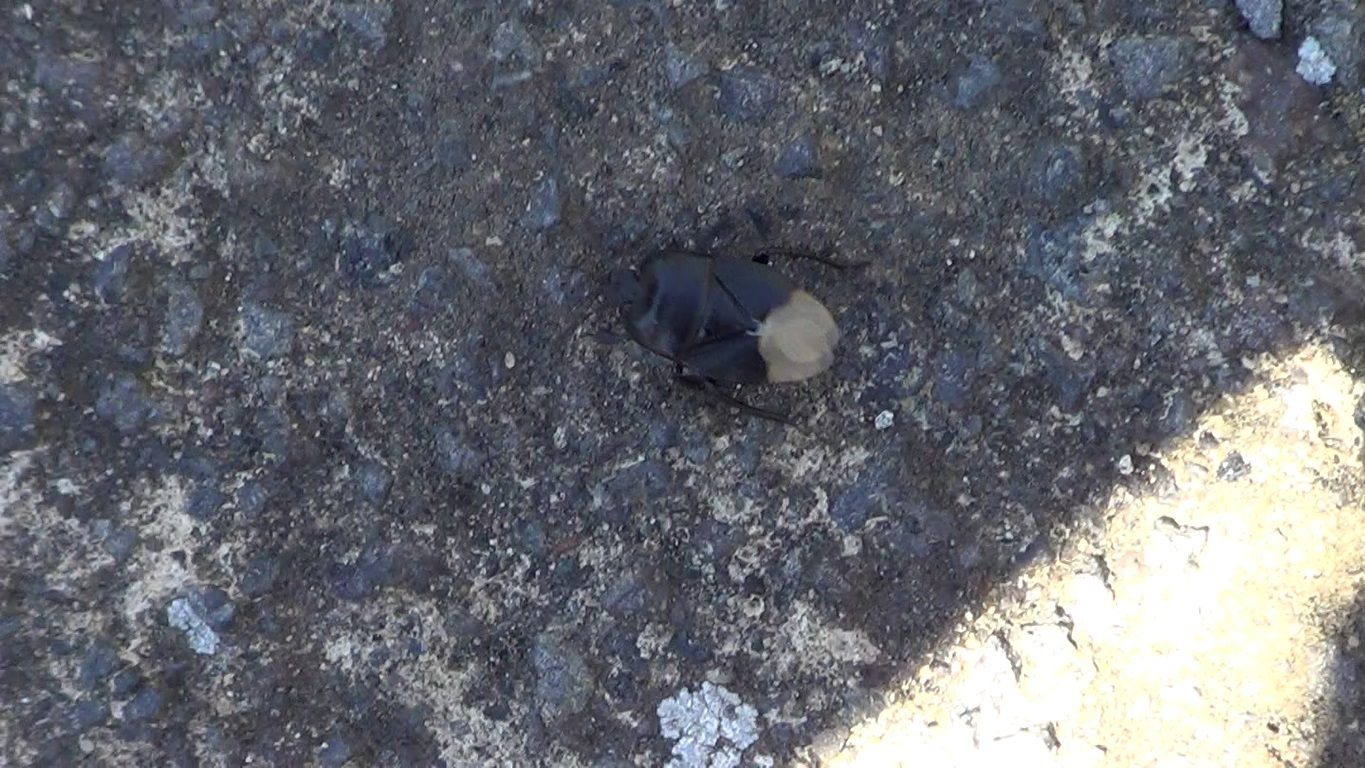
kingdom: Animalia
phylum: Arthropoda
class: Insecta
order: Hemiptera
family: Cydnidae
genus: Cydnus
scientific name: Cydnus aterrimus
